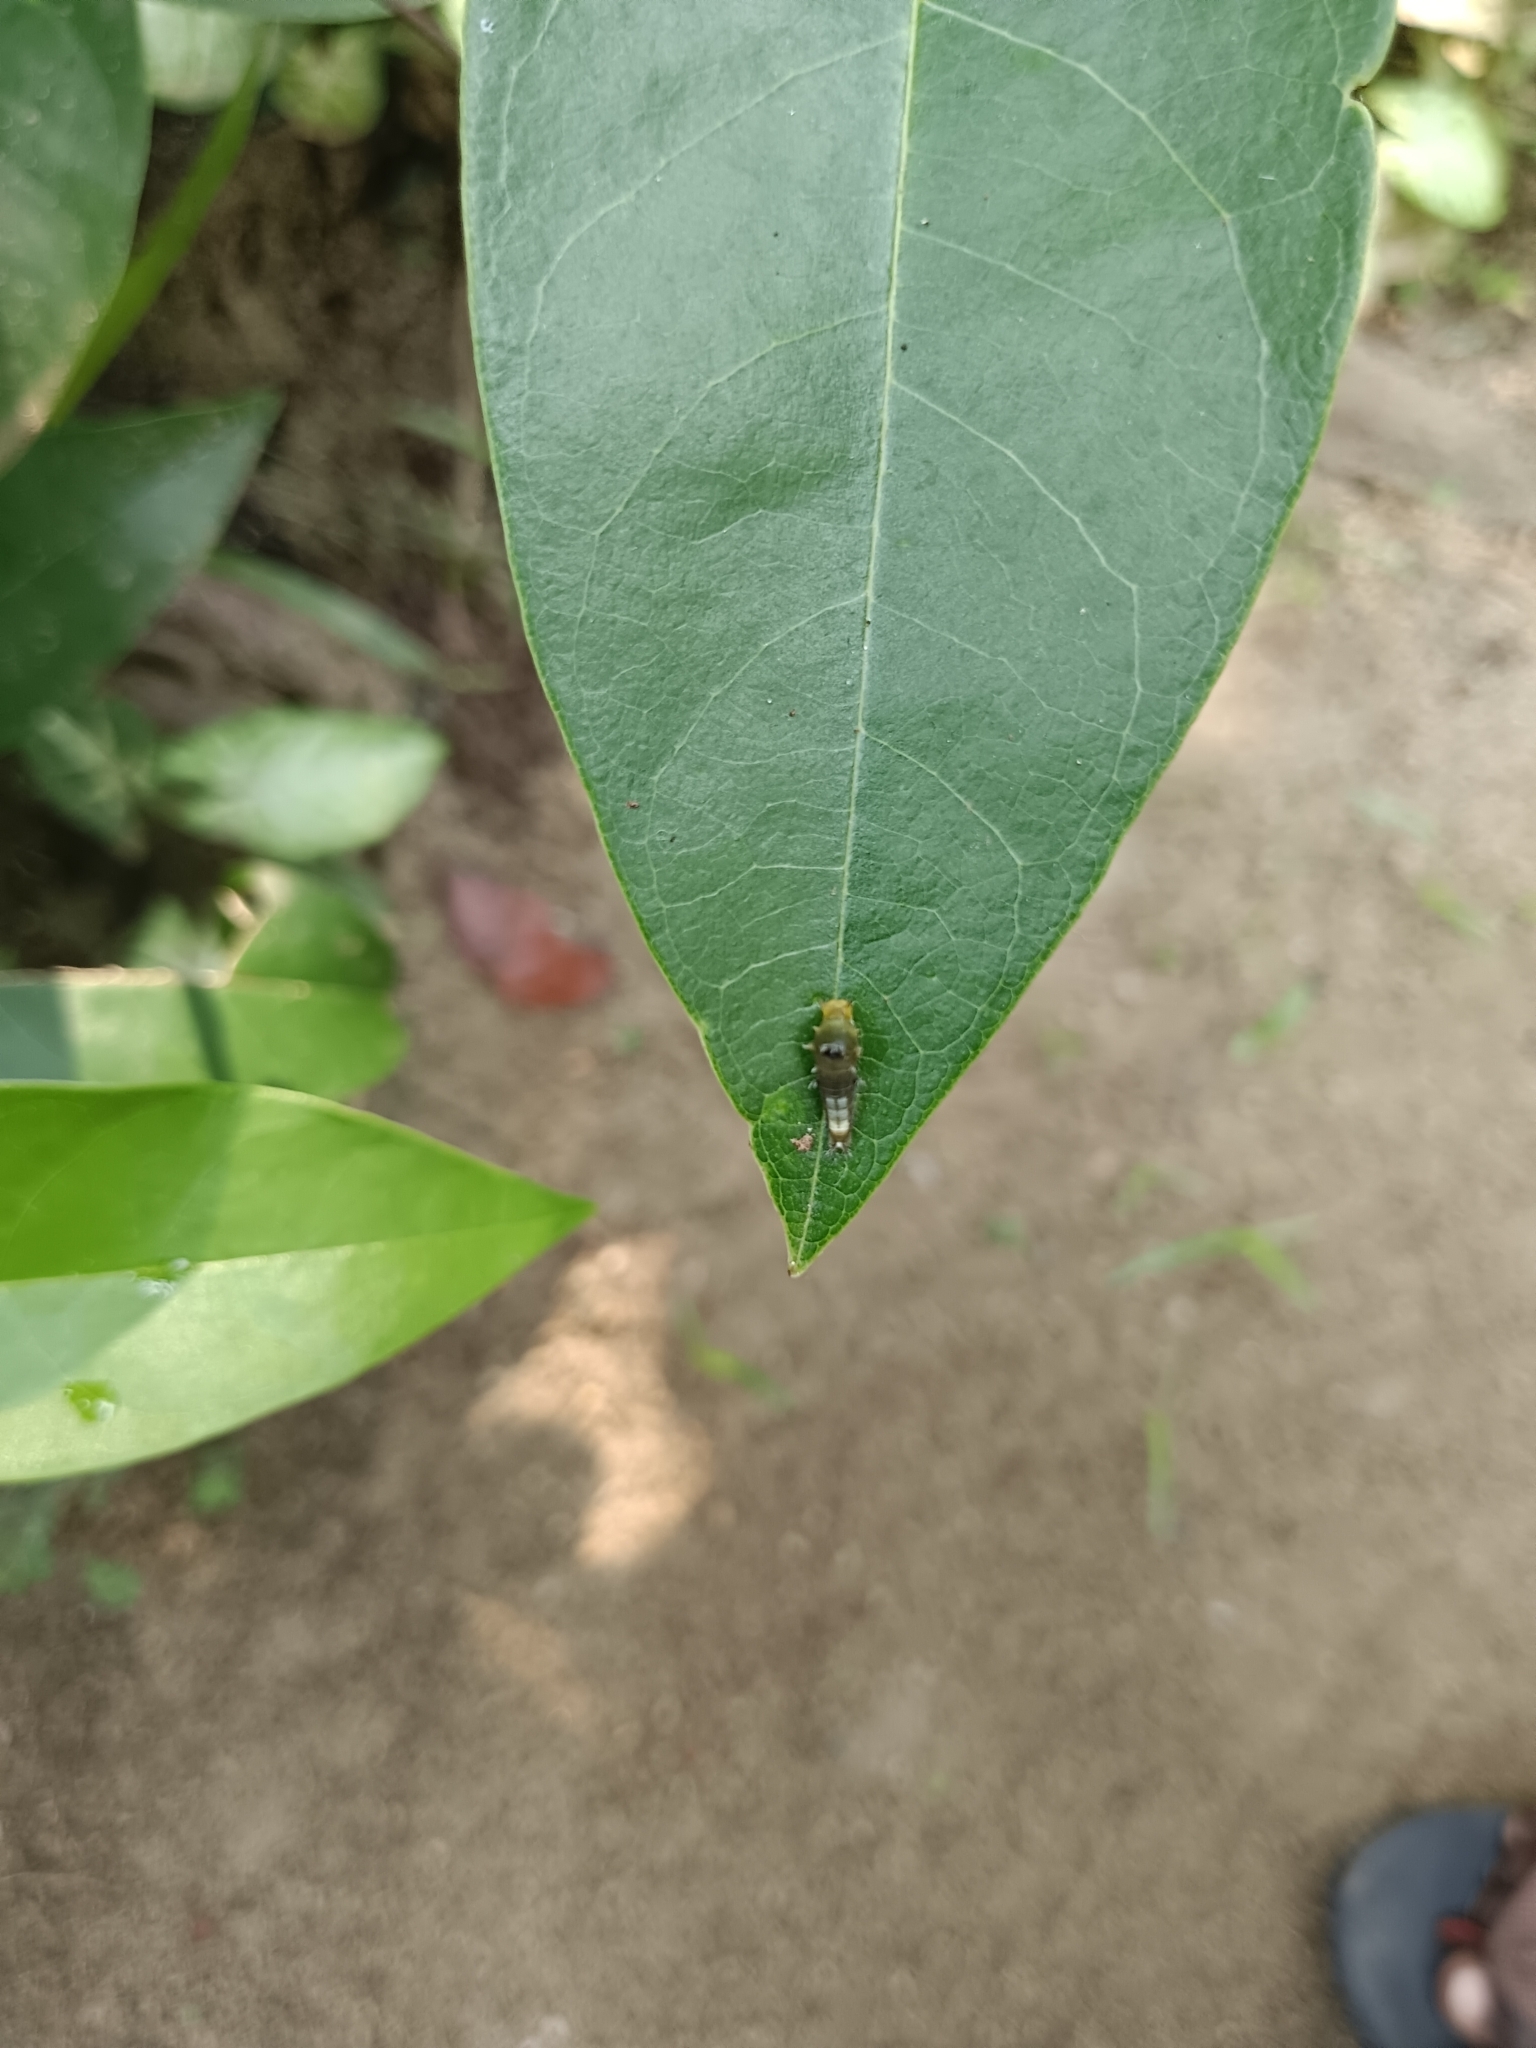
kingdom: Animalia
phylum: Arthropoda
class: Insecta
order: Lepidoptera
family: Papilionidae
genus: Graphium
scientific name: Graphium agamemnon
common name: Tailed jay
